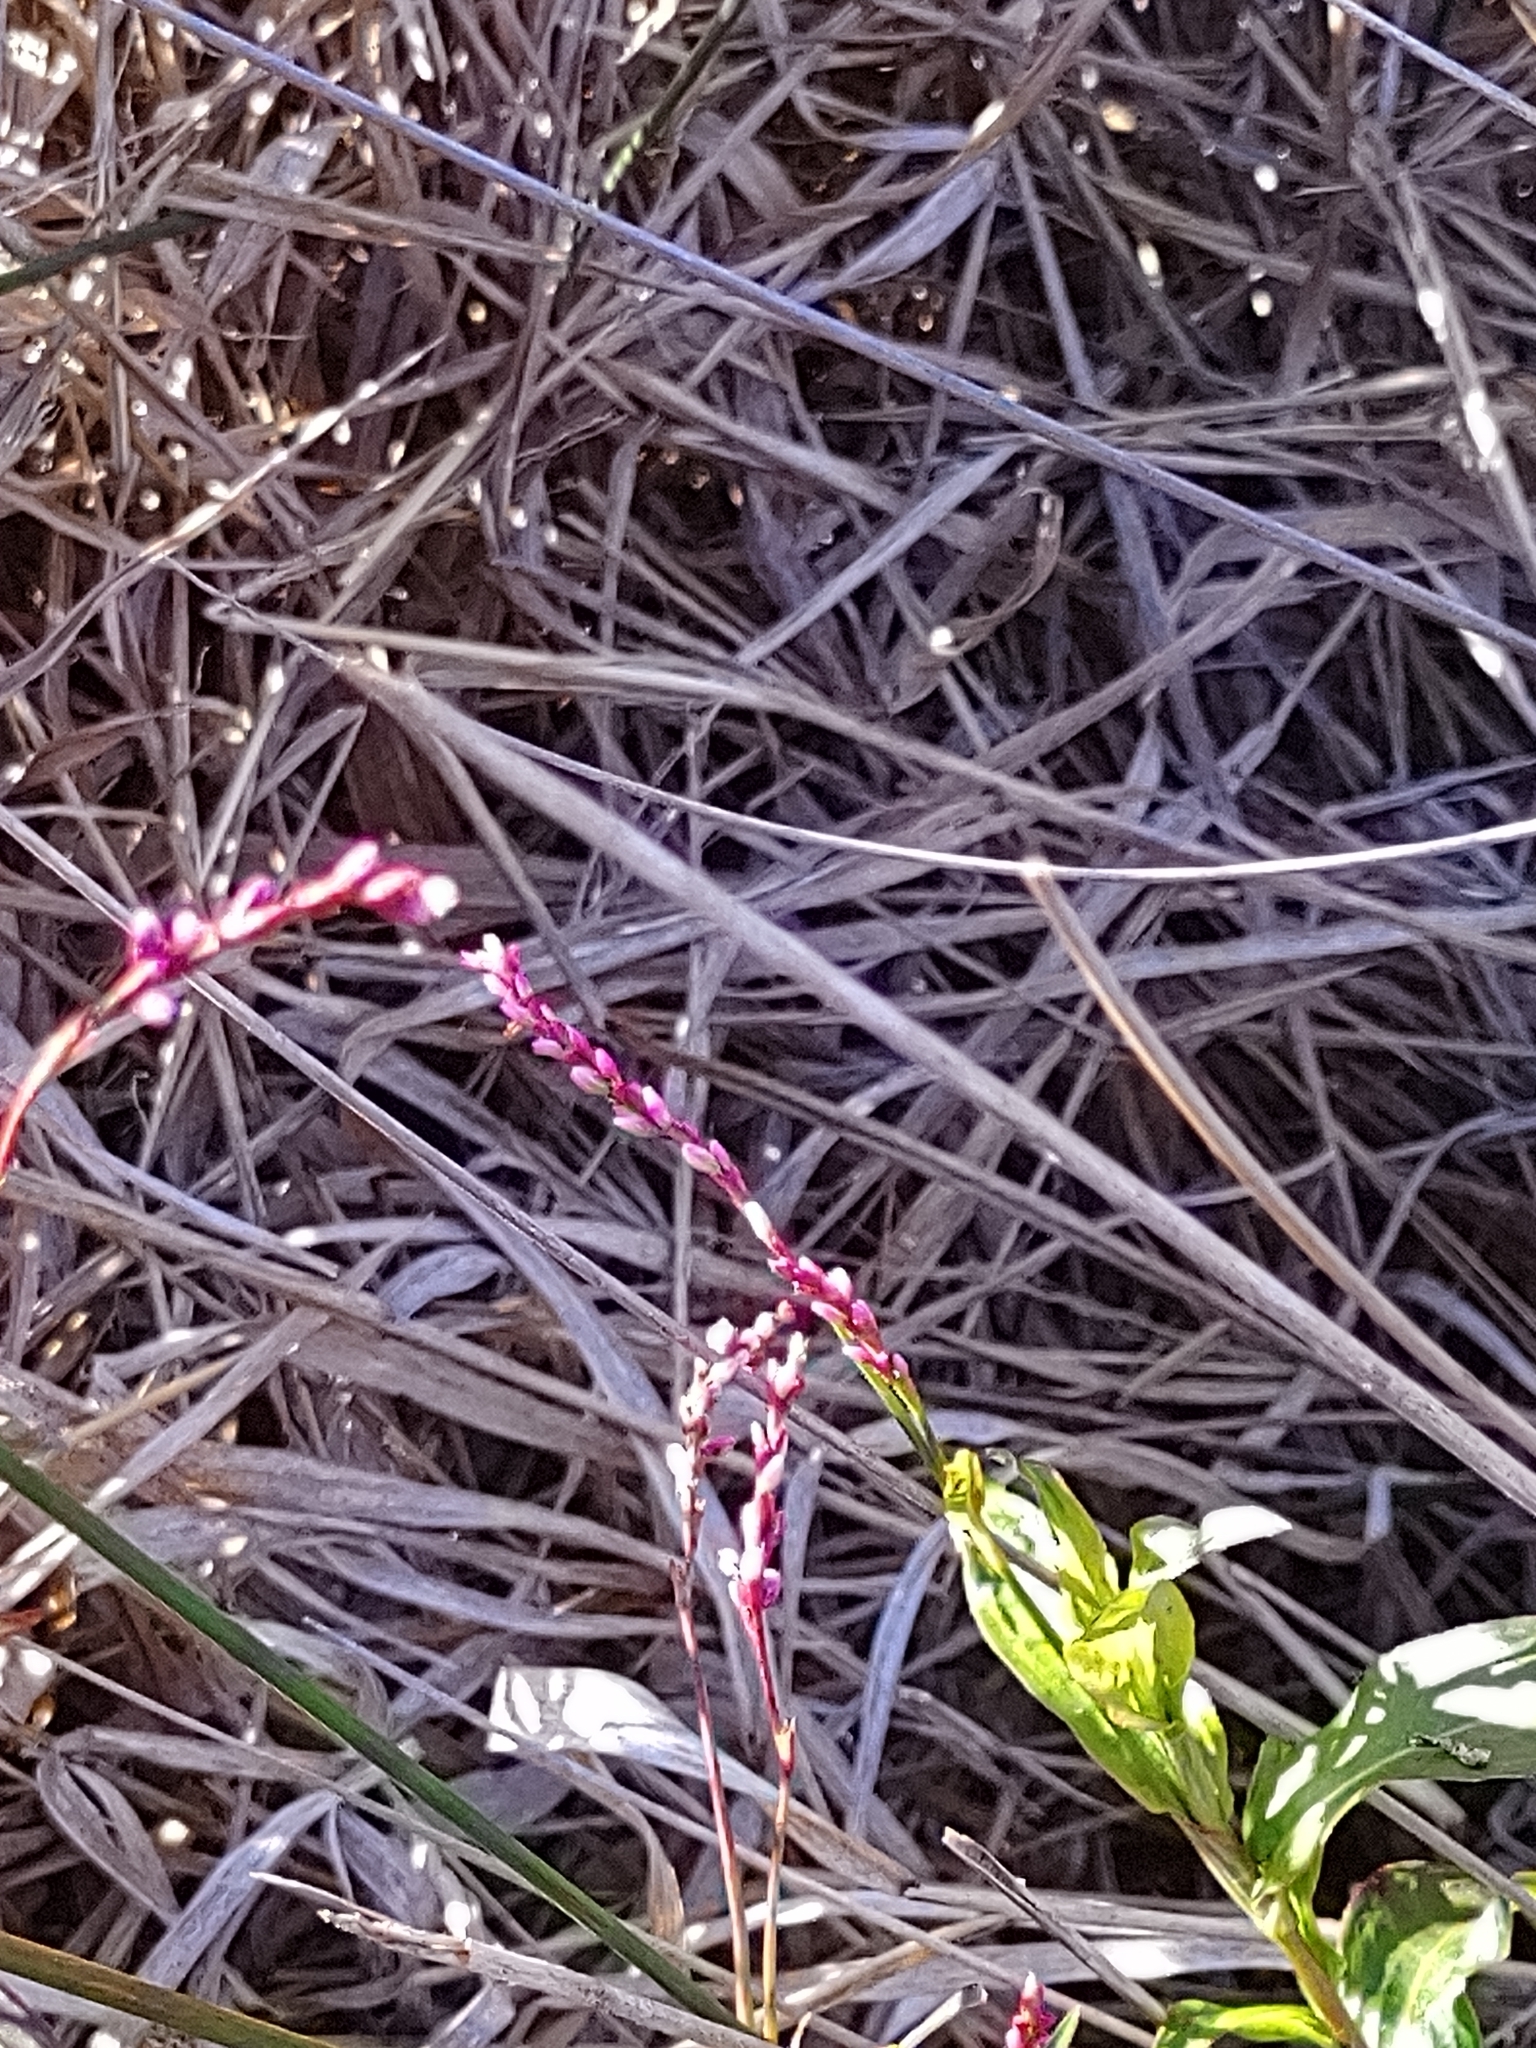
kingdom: Plantae
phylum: Tracheophyta
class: Magnoliopsida
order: Caryophyllales
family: Polygonaceae
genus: Persicaria
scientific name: Persicaria decipiens
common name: Willow-weed
